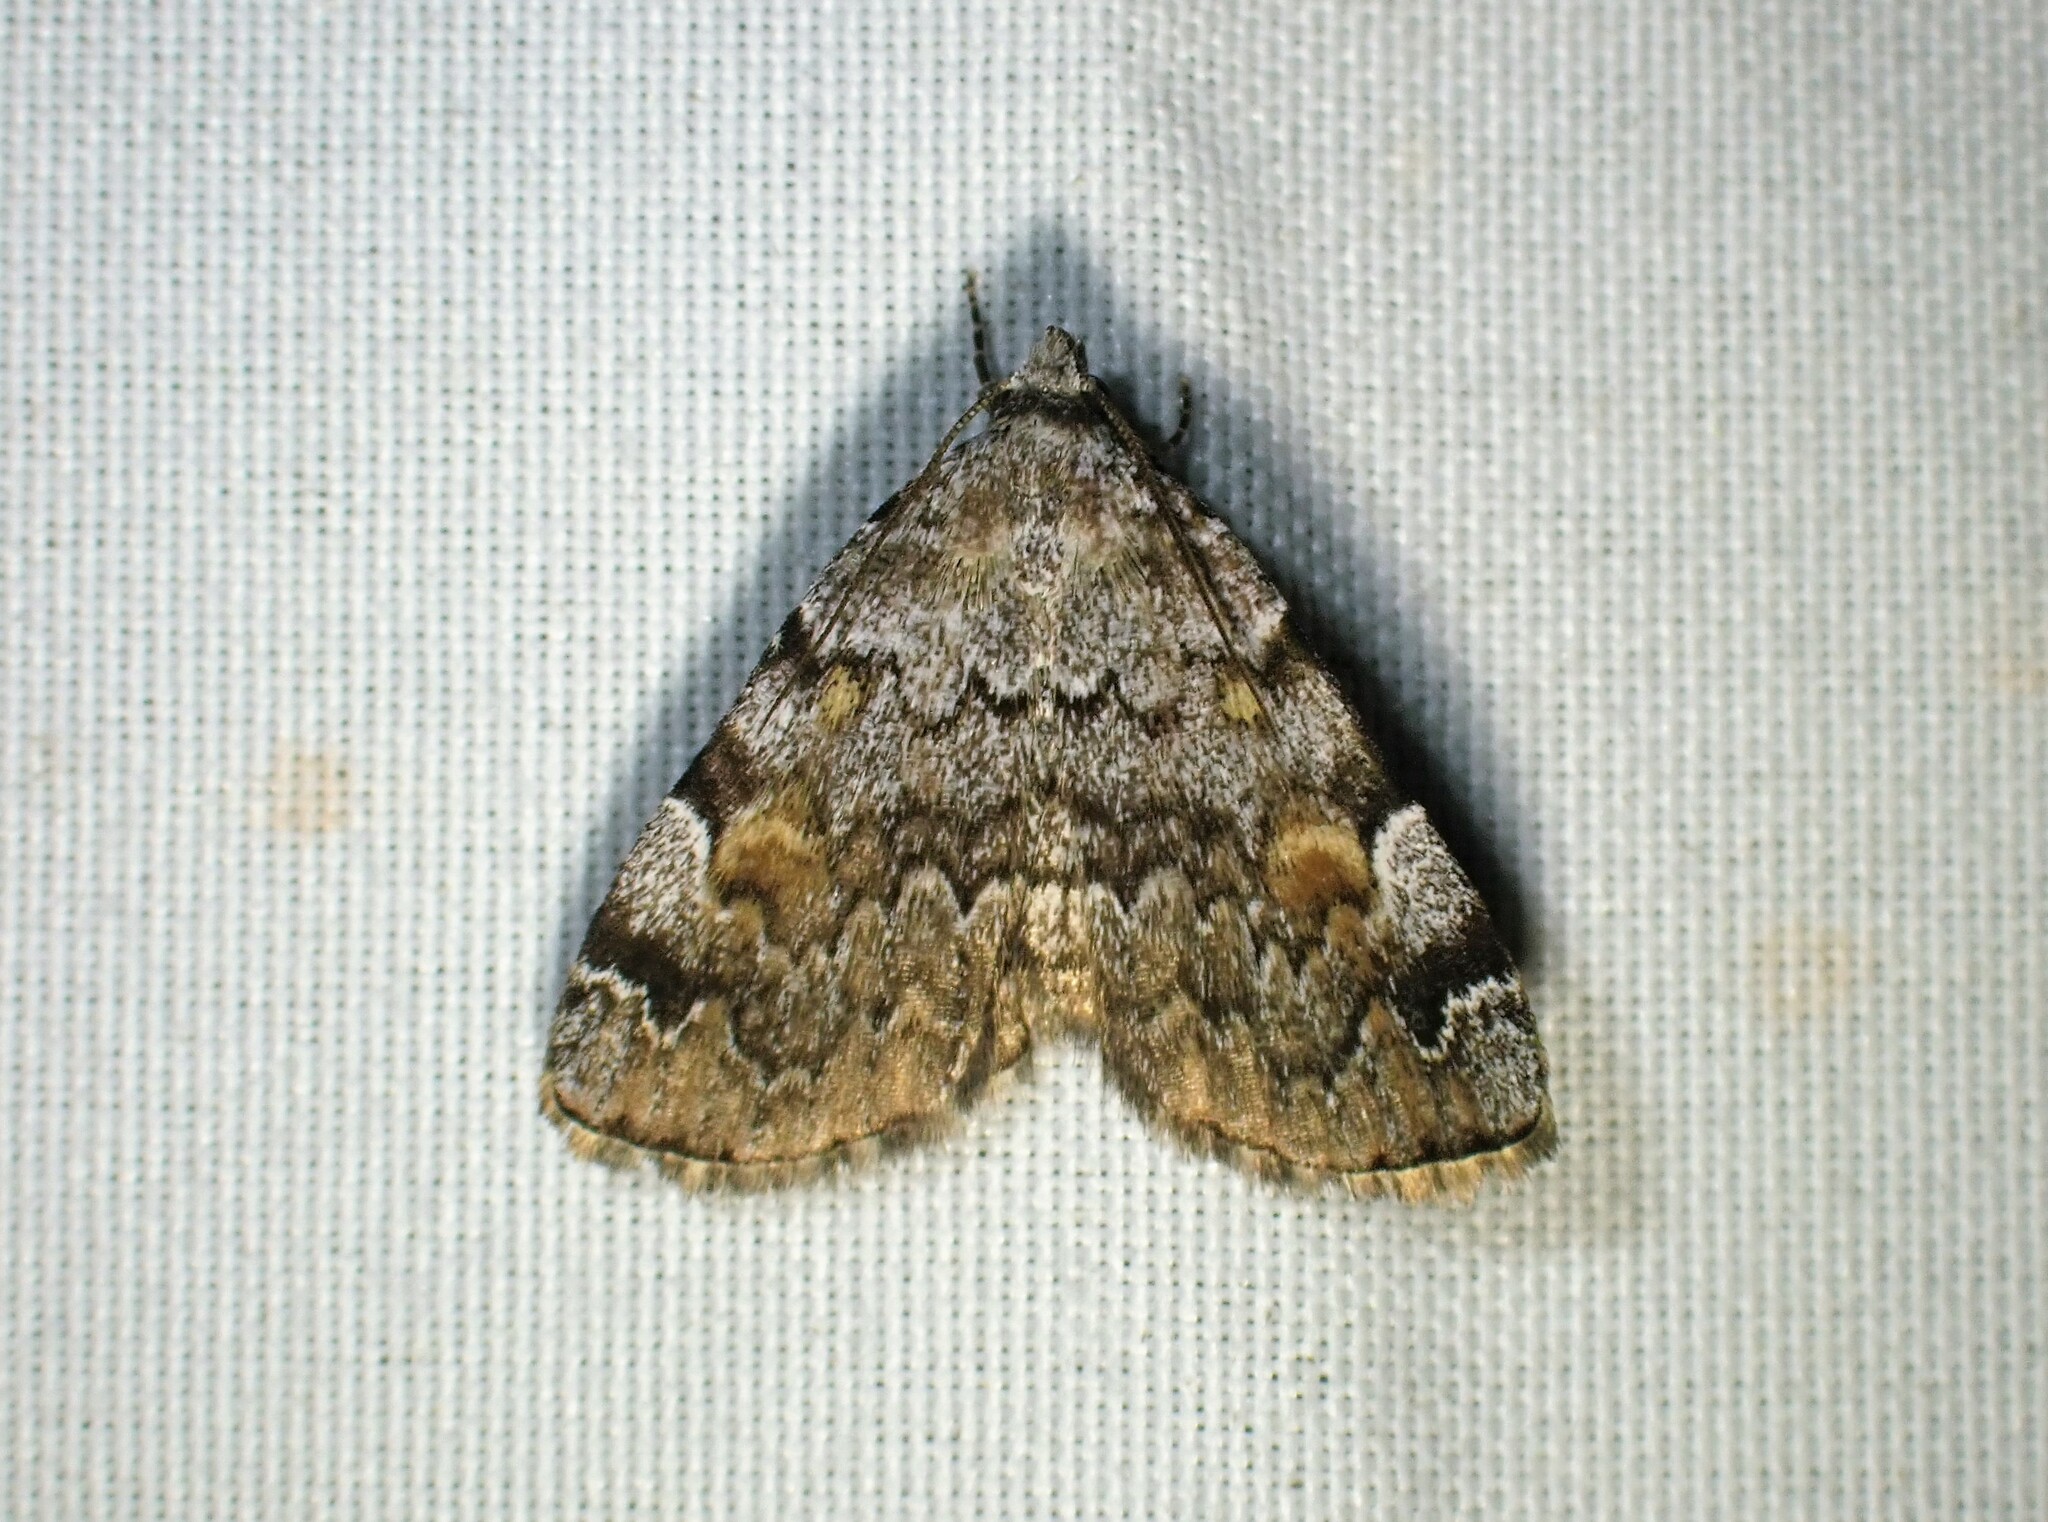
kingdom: Animalia
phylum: Arthropoda
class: Insecta
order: Lepidoptera
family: Erebidae
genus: Idia
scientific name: Idia americalis
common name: American idia moth
